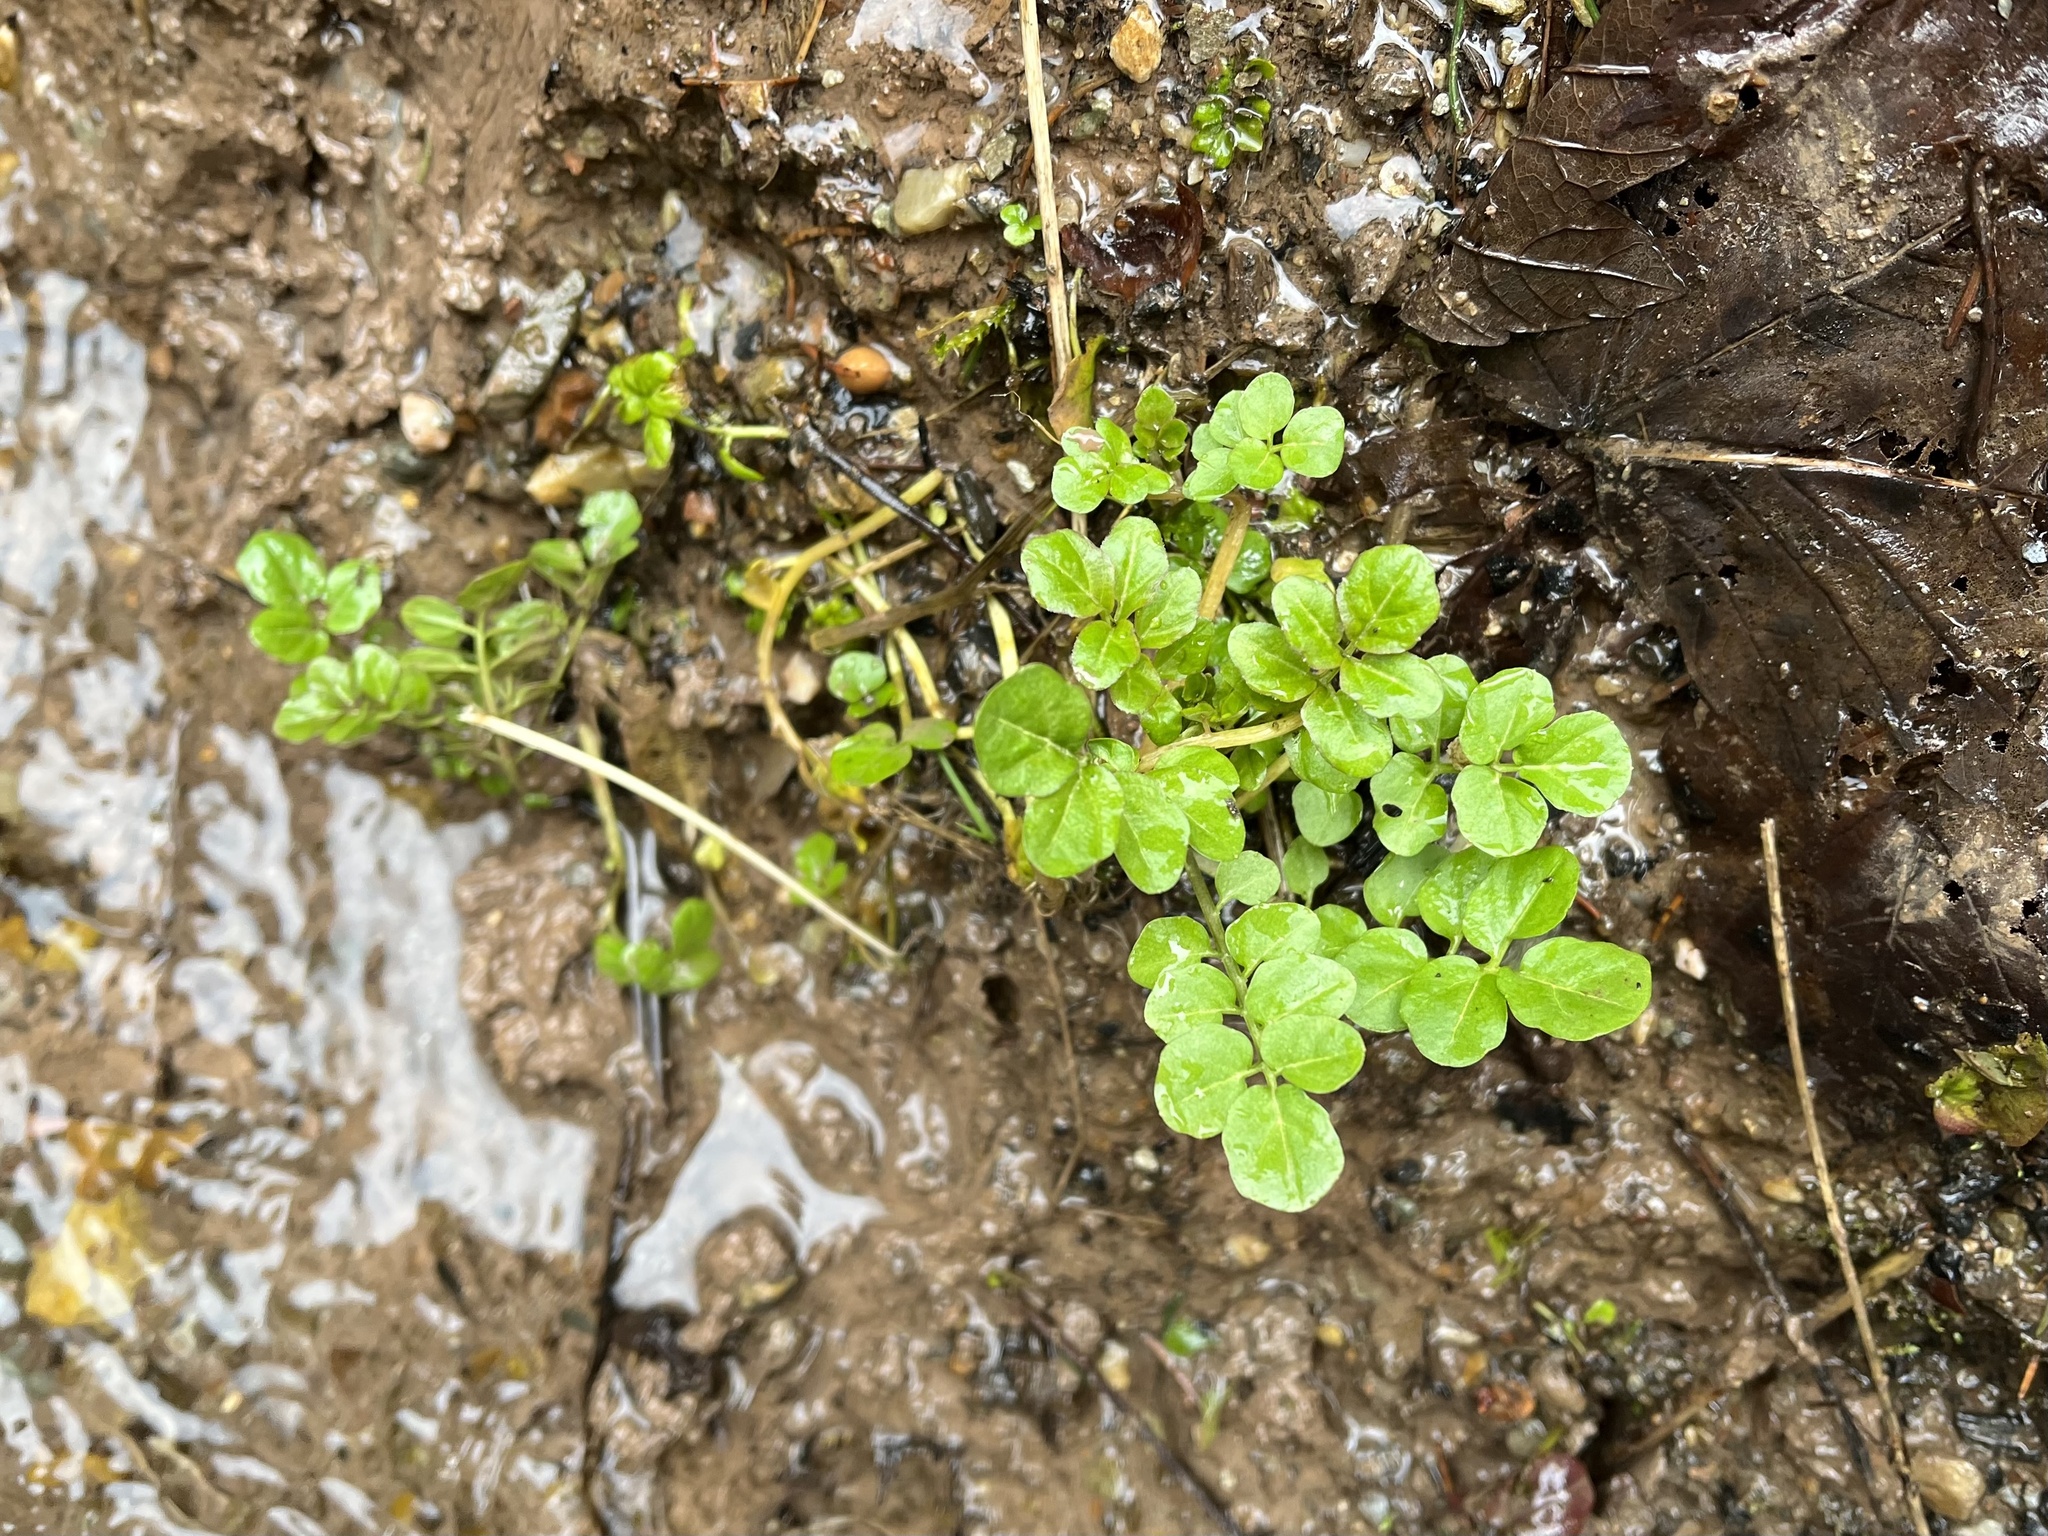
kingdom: Plantae
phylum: Tracheophyta
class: Magnoliopsida
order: Brassicales
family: Brassicaceae
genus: Cardamine
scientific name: Cardamine amara
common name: Large bitter-cress
